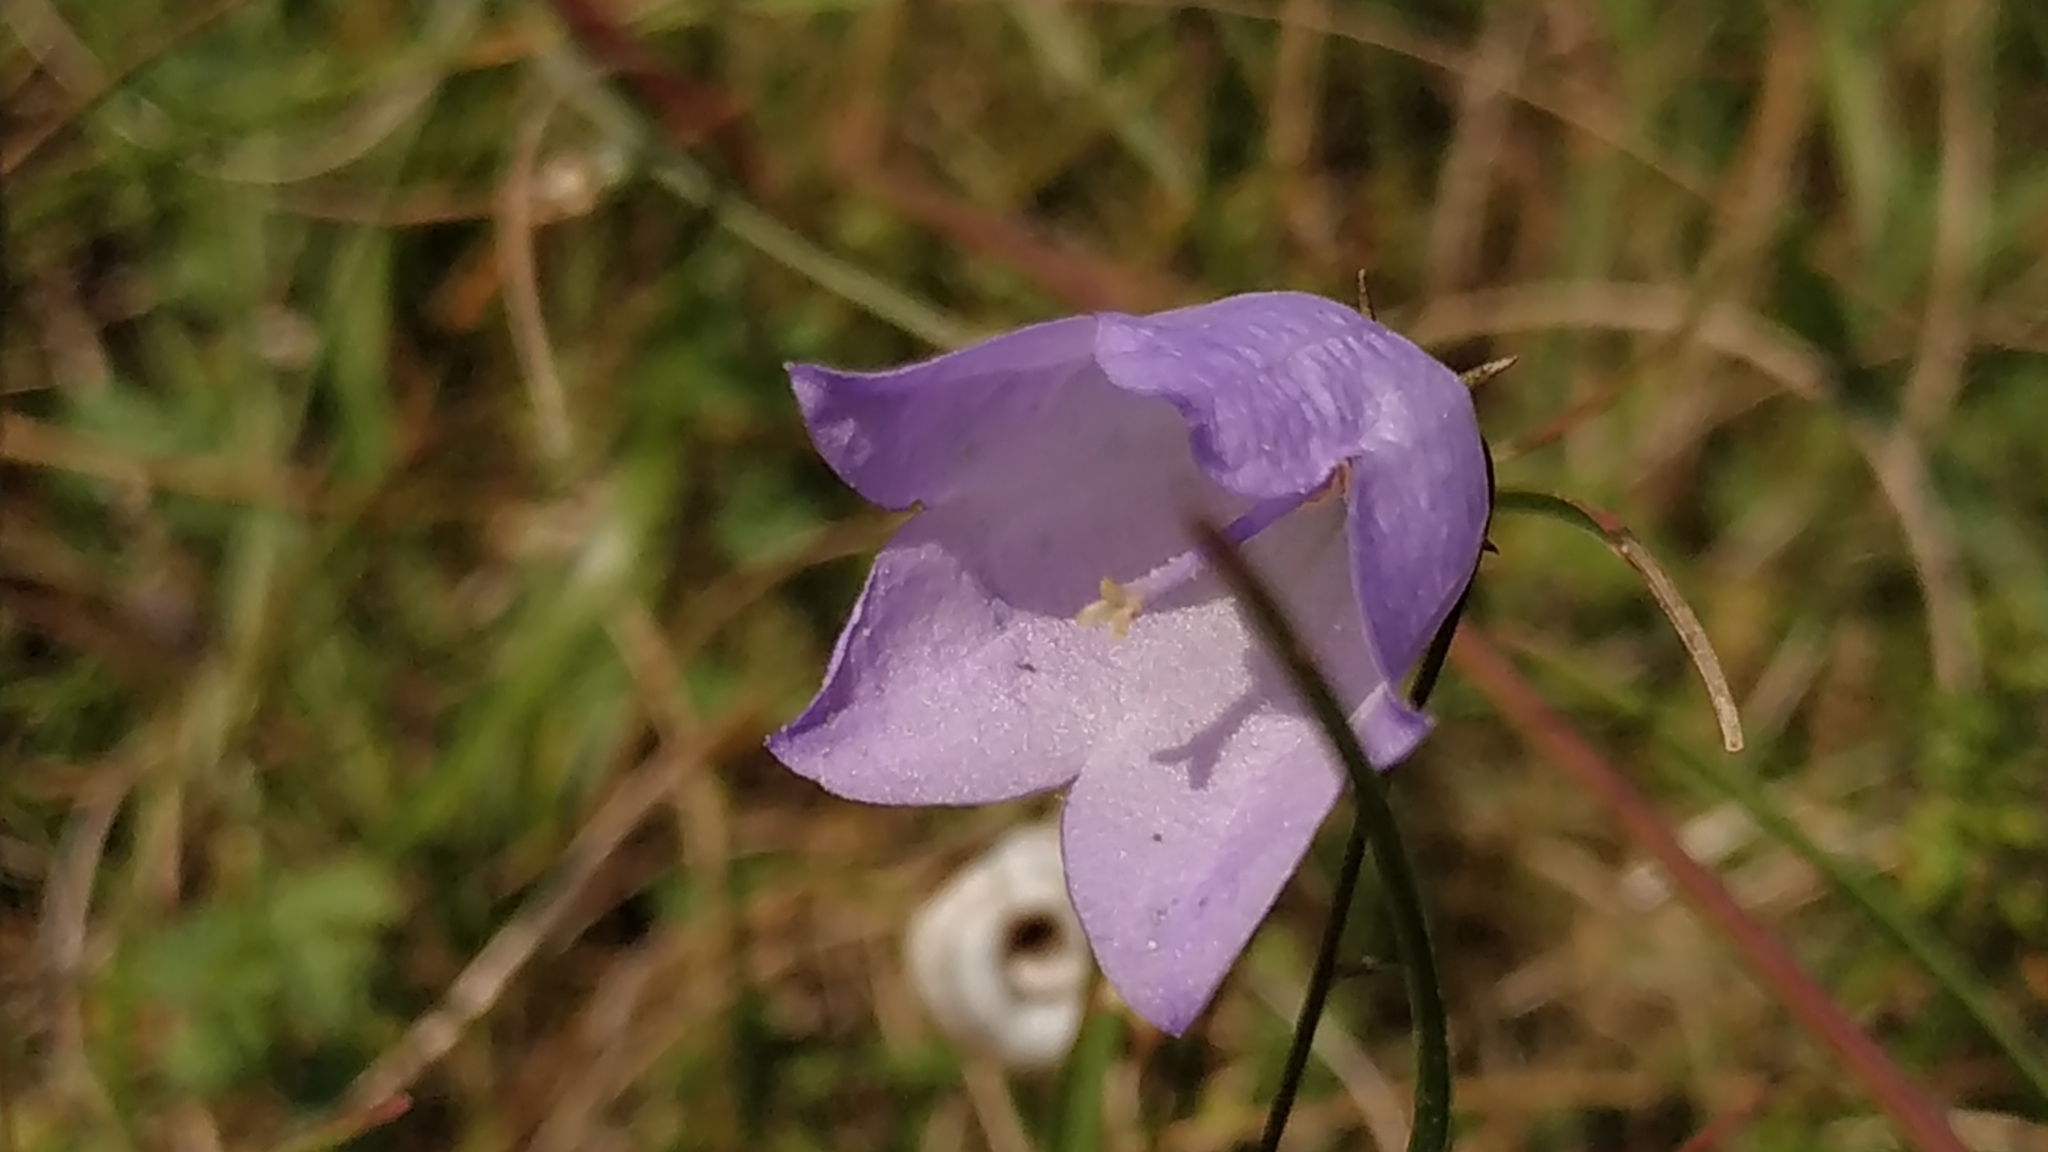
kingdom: Plantae
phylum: Tracheophyta
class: Magnoliopsida
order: Asterales
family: Campanulaceae
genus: Campanula
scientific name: Campanula rotundifolia
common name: Harebell
